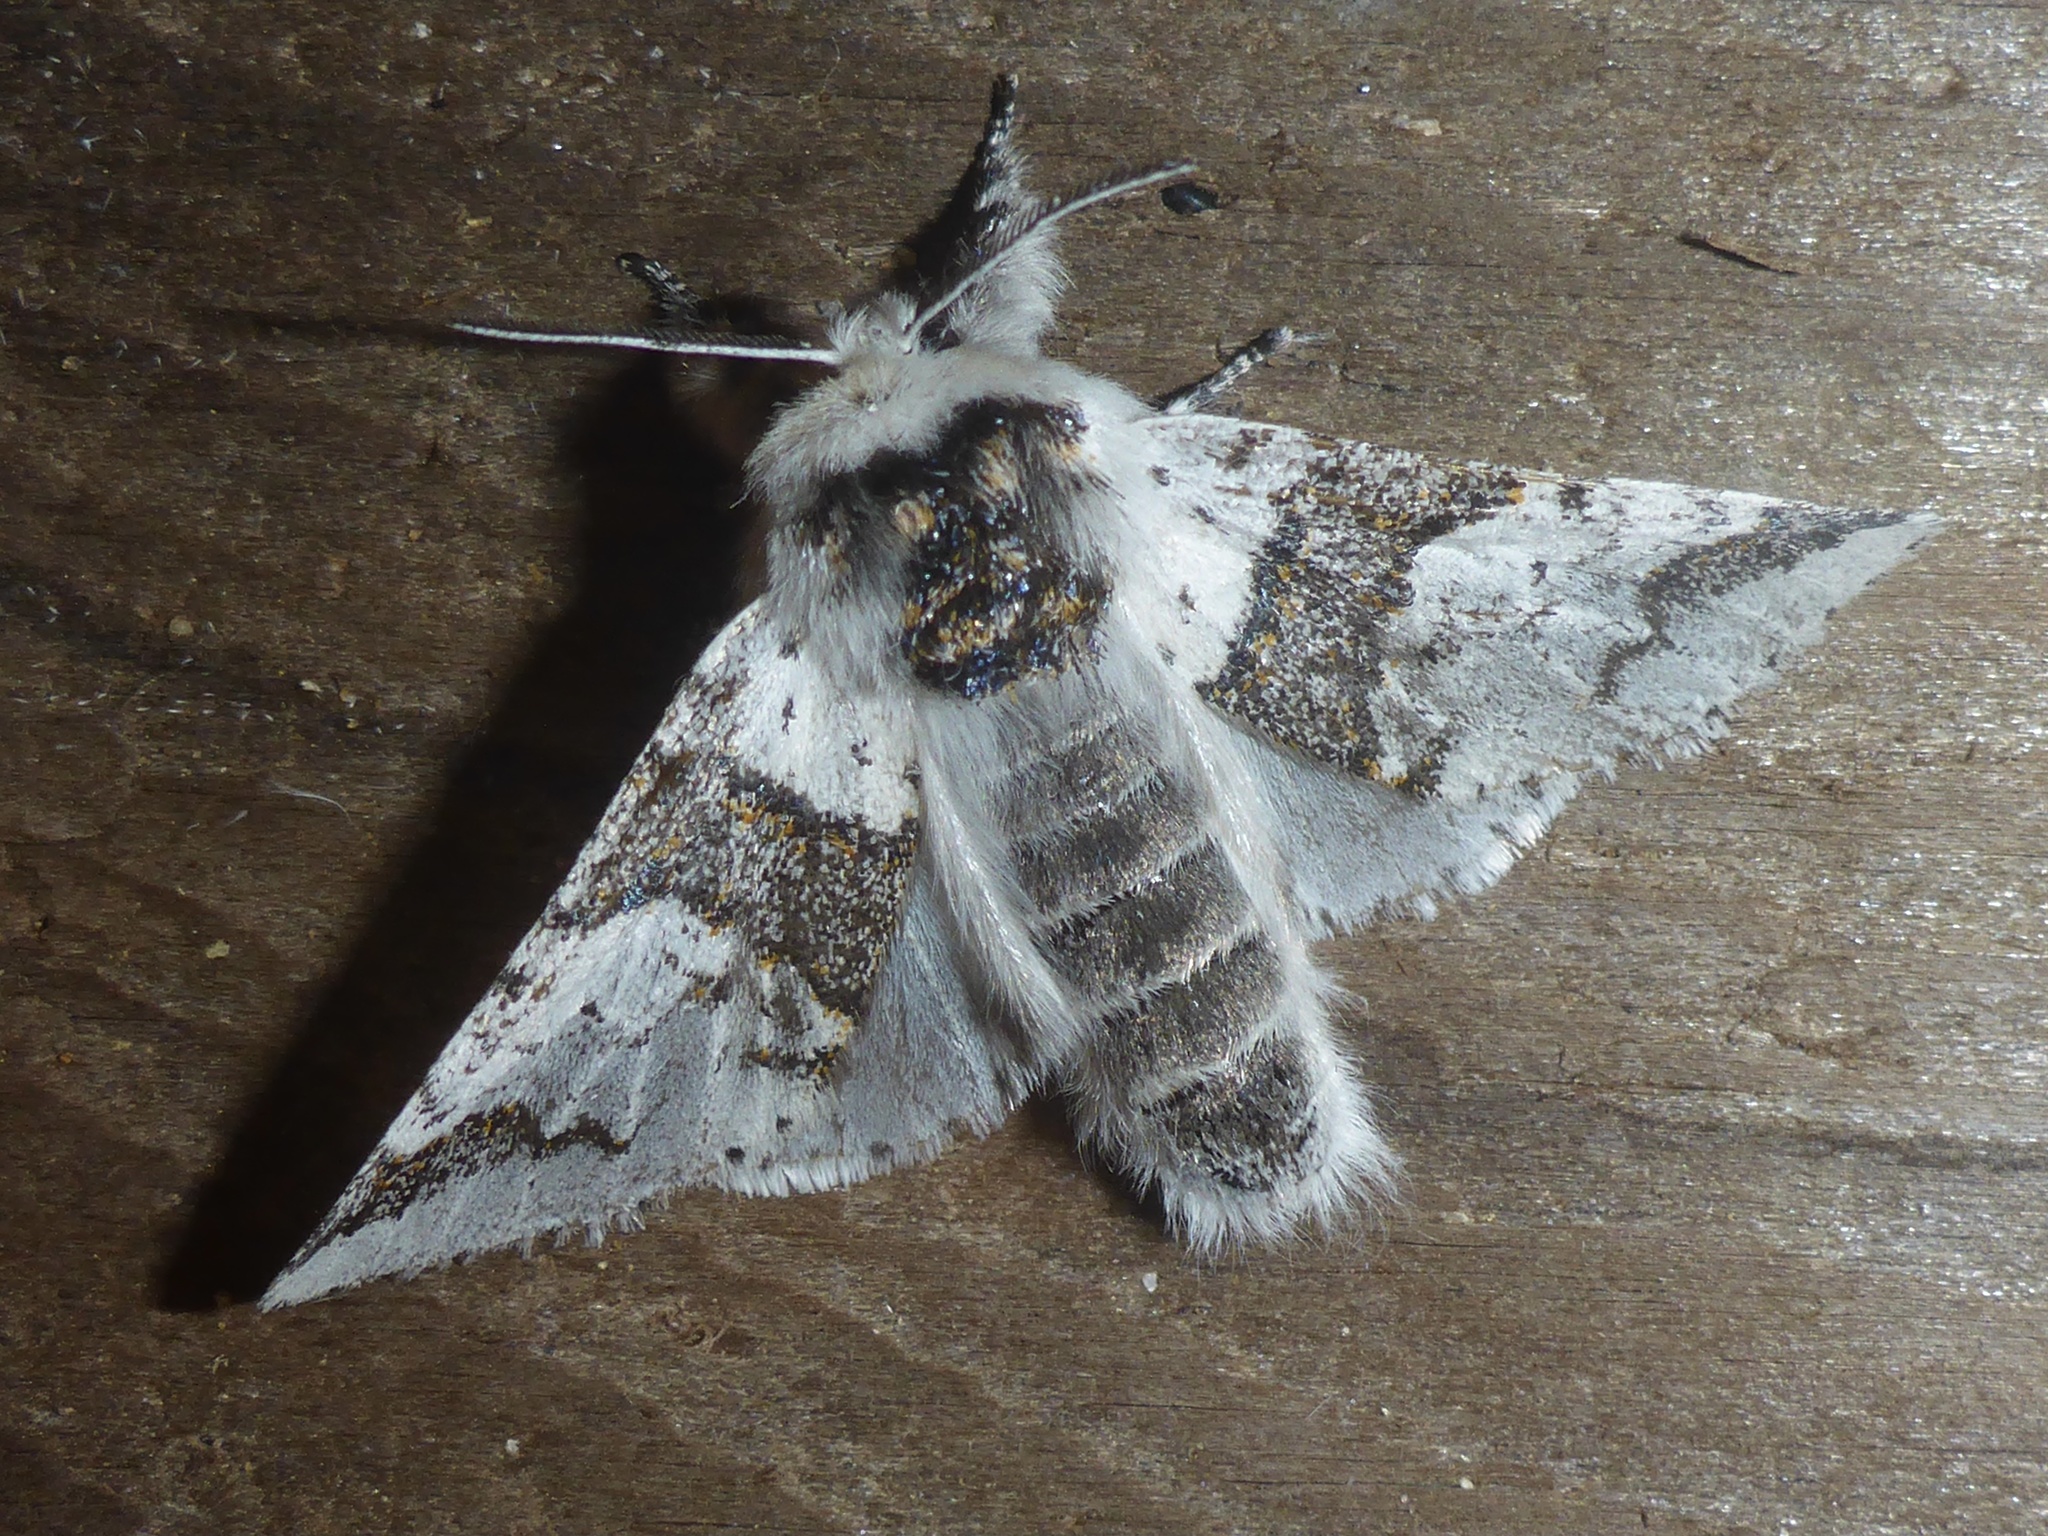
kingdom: Animalia
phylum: Arthropoda
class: Insecta
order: Lepidoptera
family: Notodontidae
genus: Furcula
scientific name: Furcula scolopendrina
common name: Zigzag furcula moth
